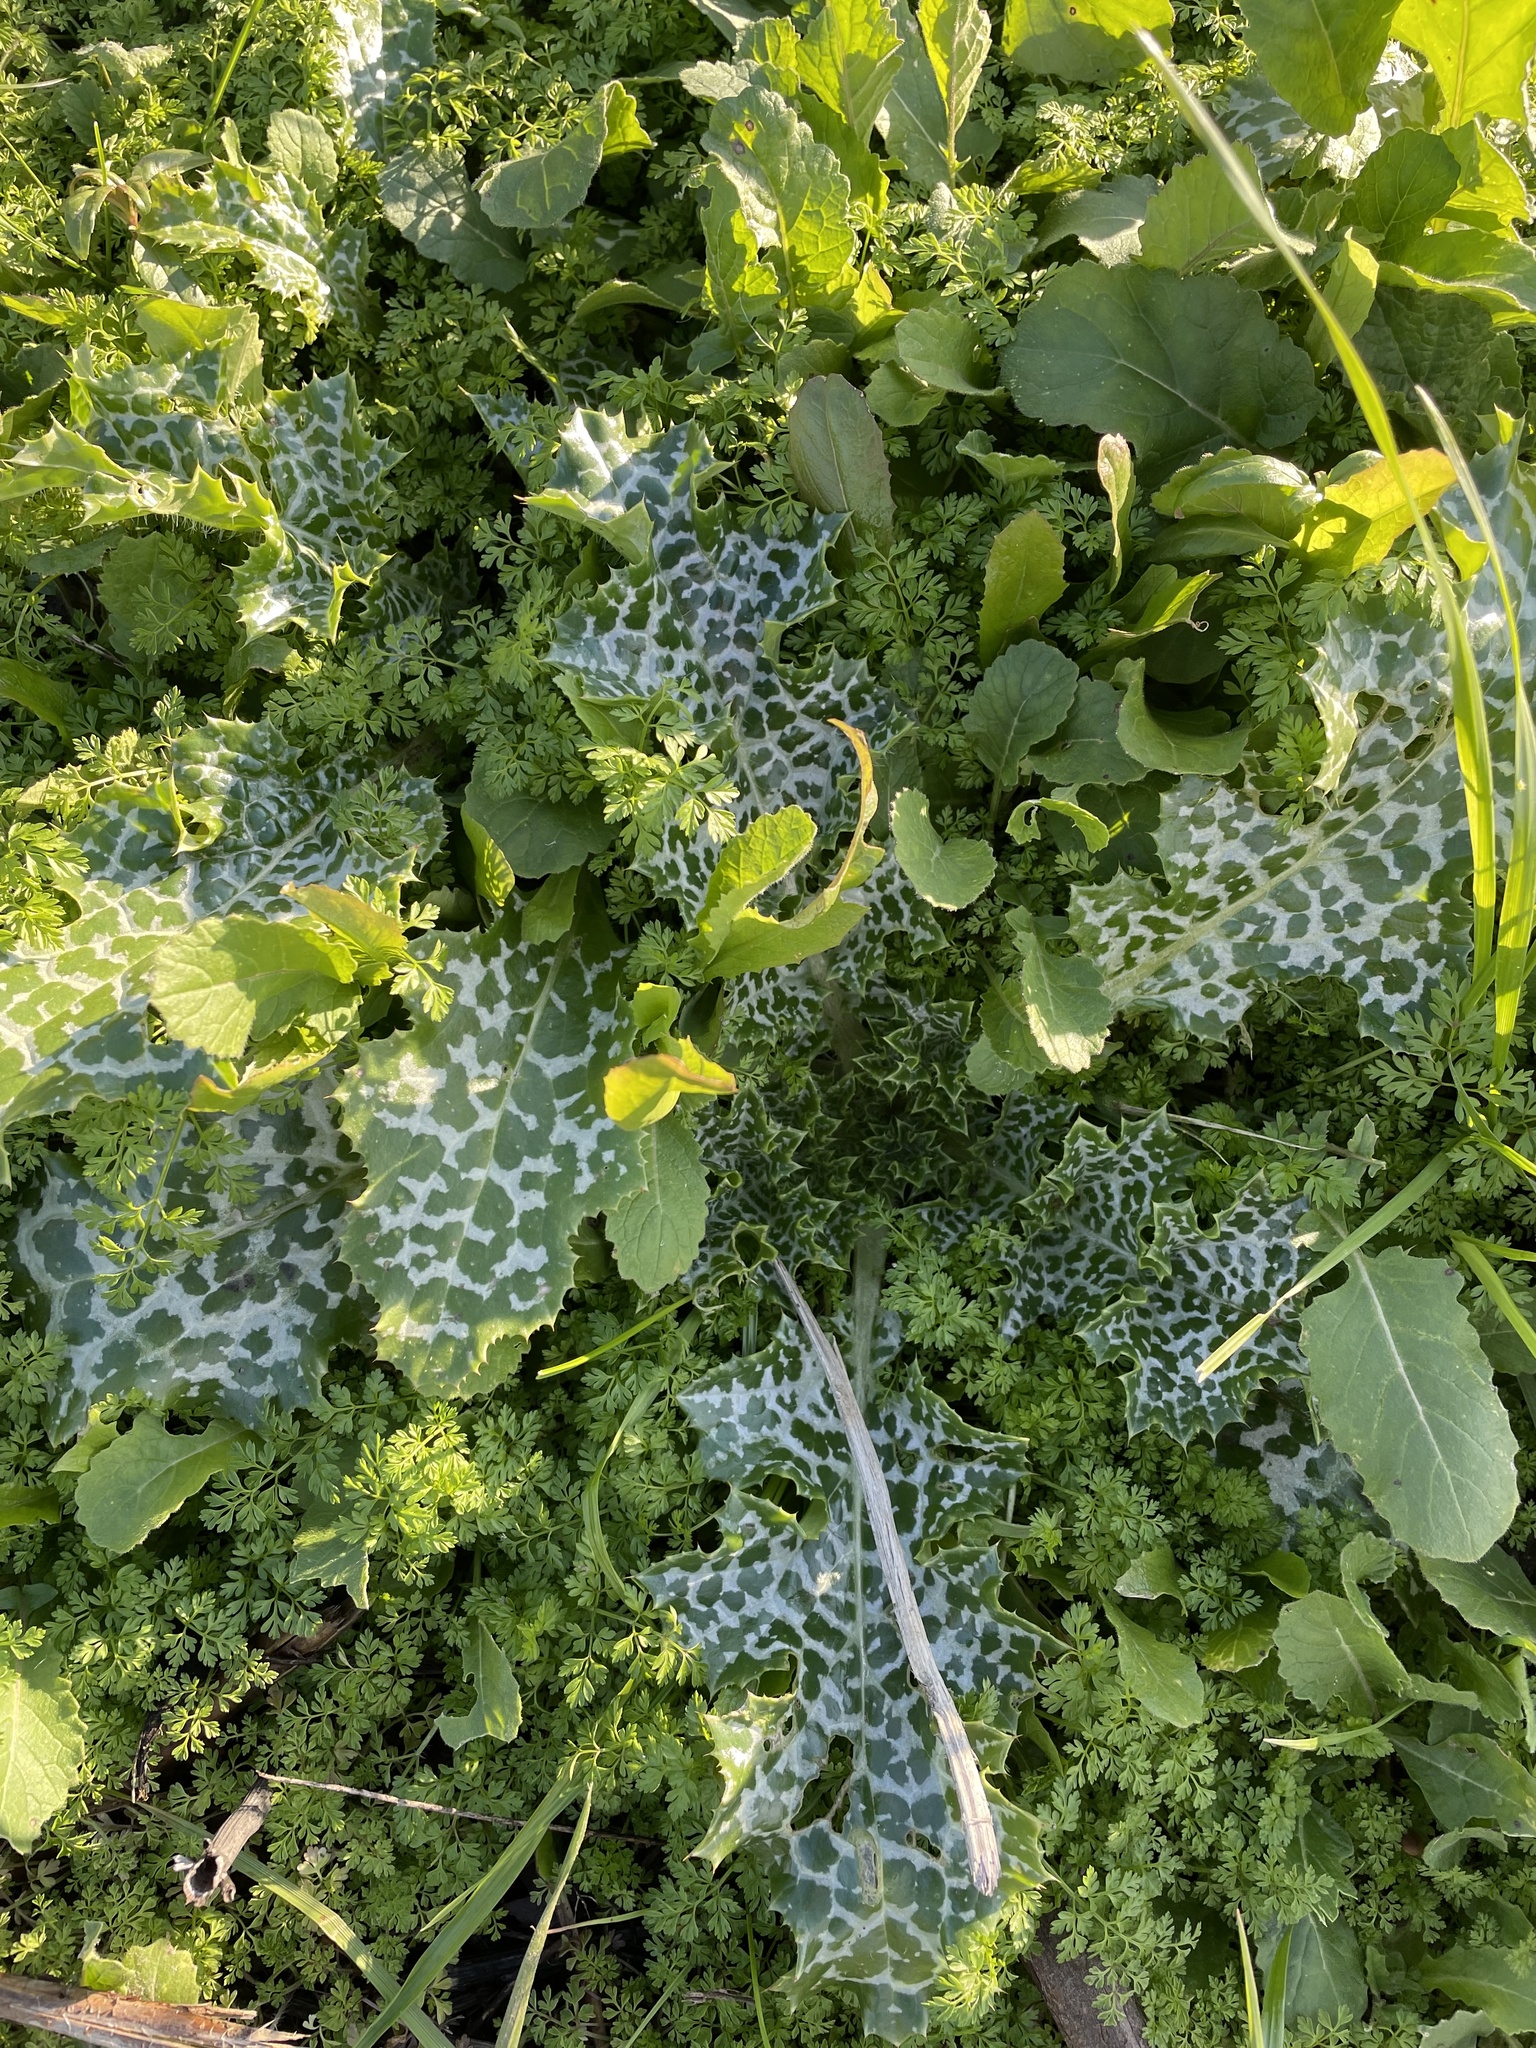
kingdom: Plantae
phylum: Tracheophyta
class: Magnoliopsida
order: Asterales
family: Asteraceae
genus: Silybum
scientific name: Silybum marianum
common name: Milk thistle
